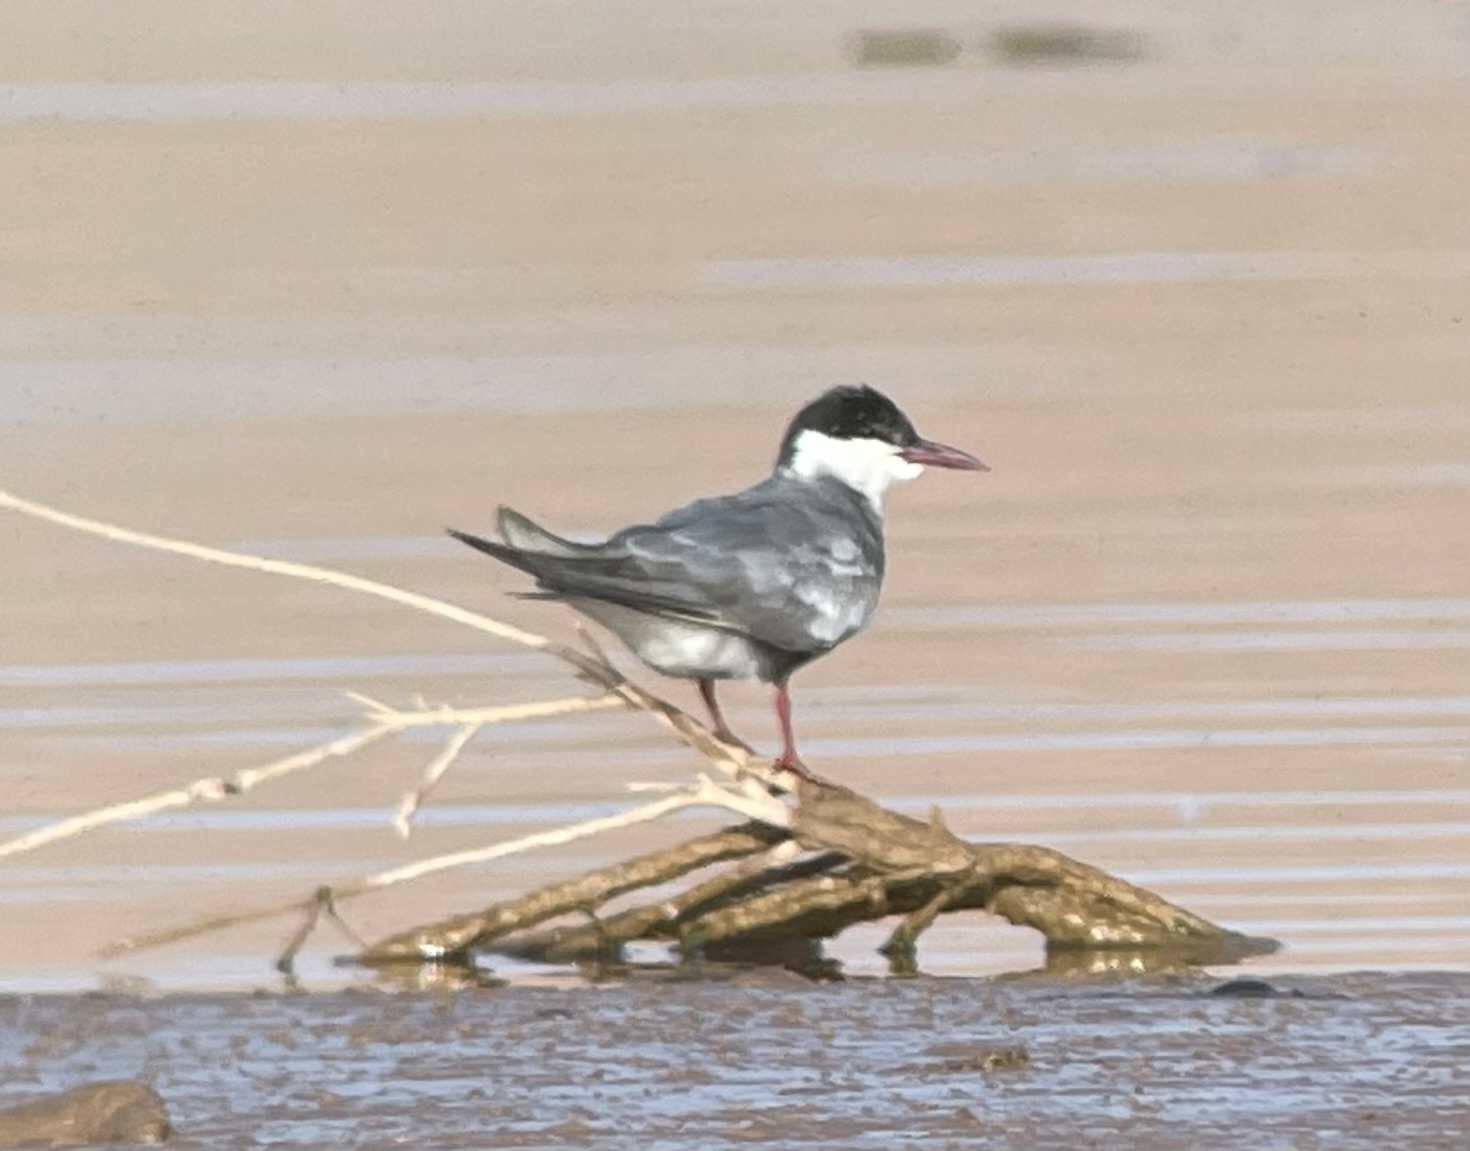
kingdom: Animalia
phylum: Chordata
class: Aves
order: Charadriiformes
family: Laridae
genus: Chlidonias
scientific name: Chlidonias hybrida
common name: Whiskered tern
